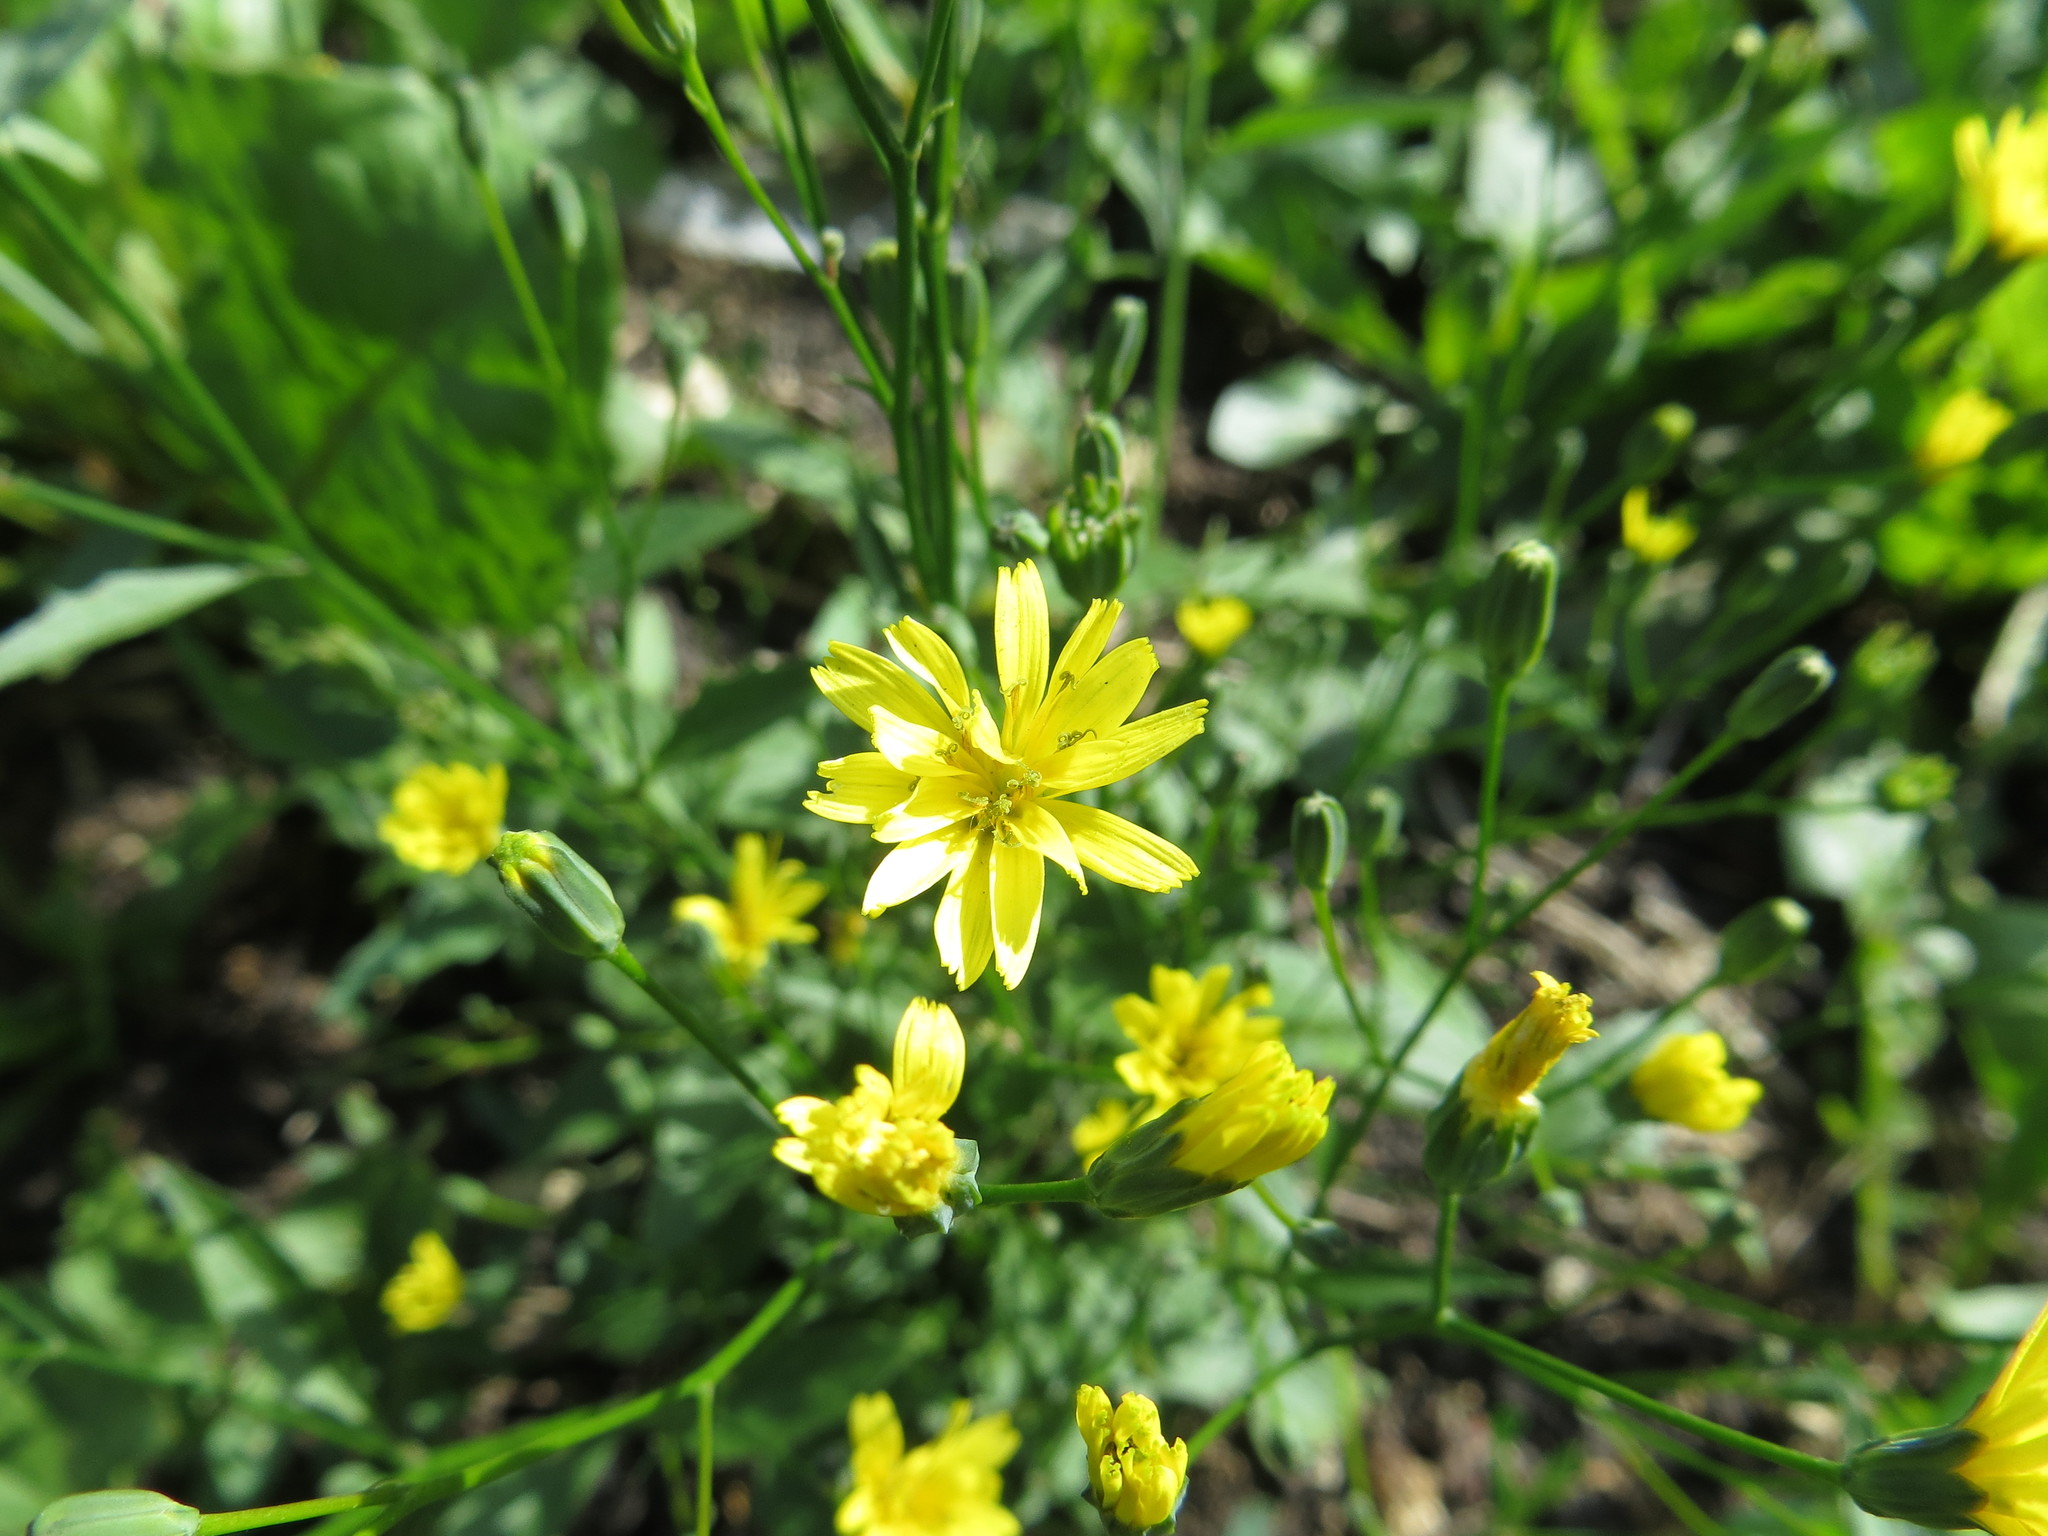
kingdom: Plantae
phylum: Tracheophyta
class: Magnoliopsida
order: Asterales
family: Asteraceae
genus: Lapsana
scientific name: Lapsana communis
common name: Nipplewort
